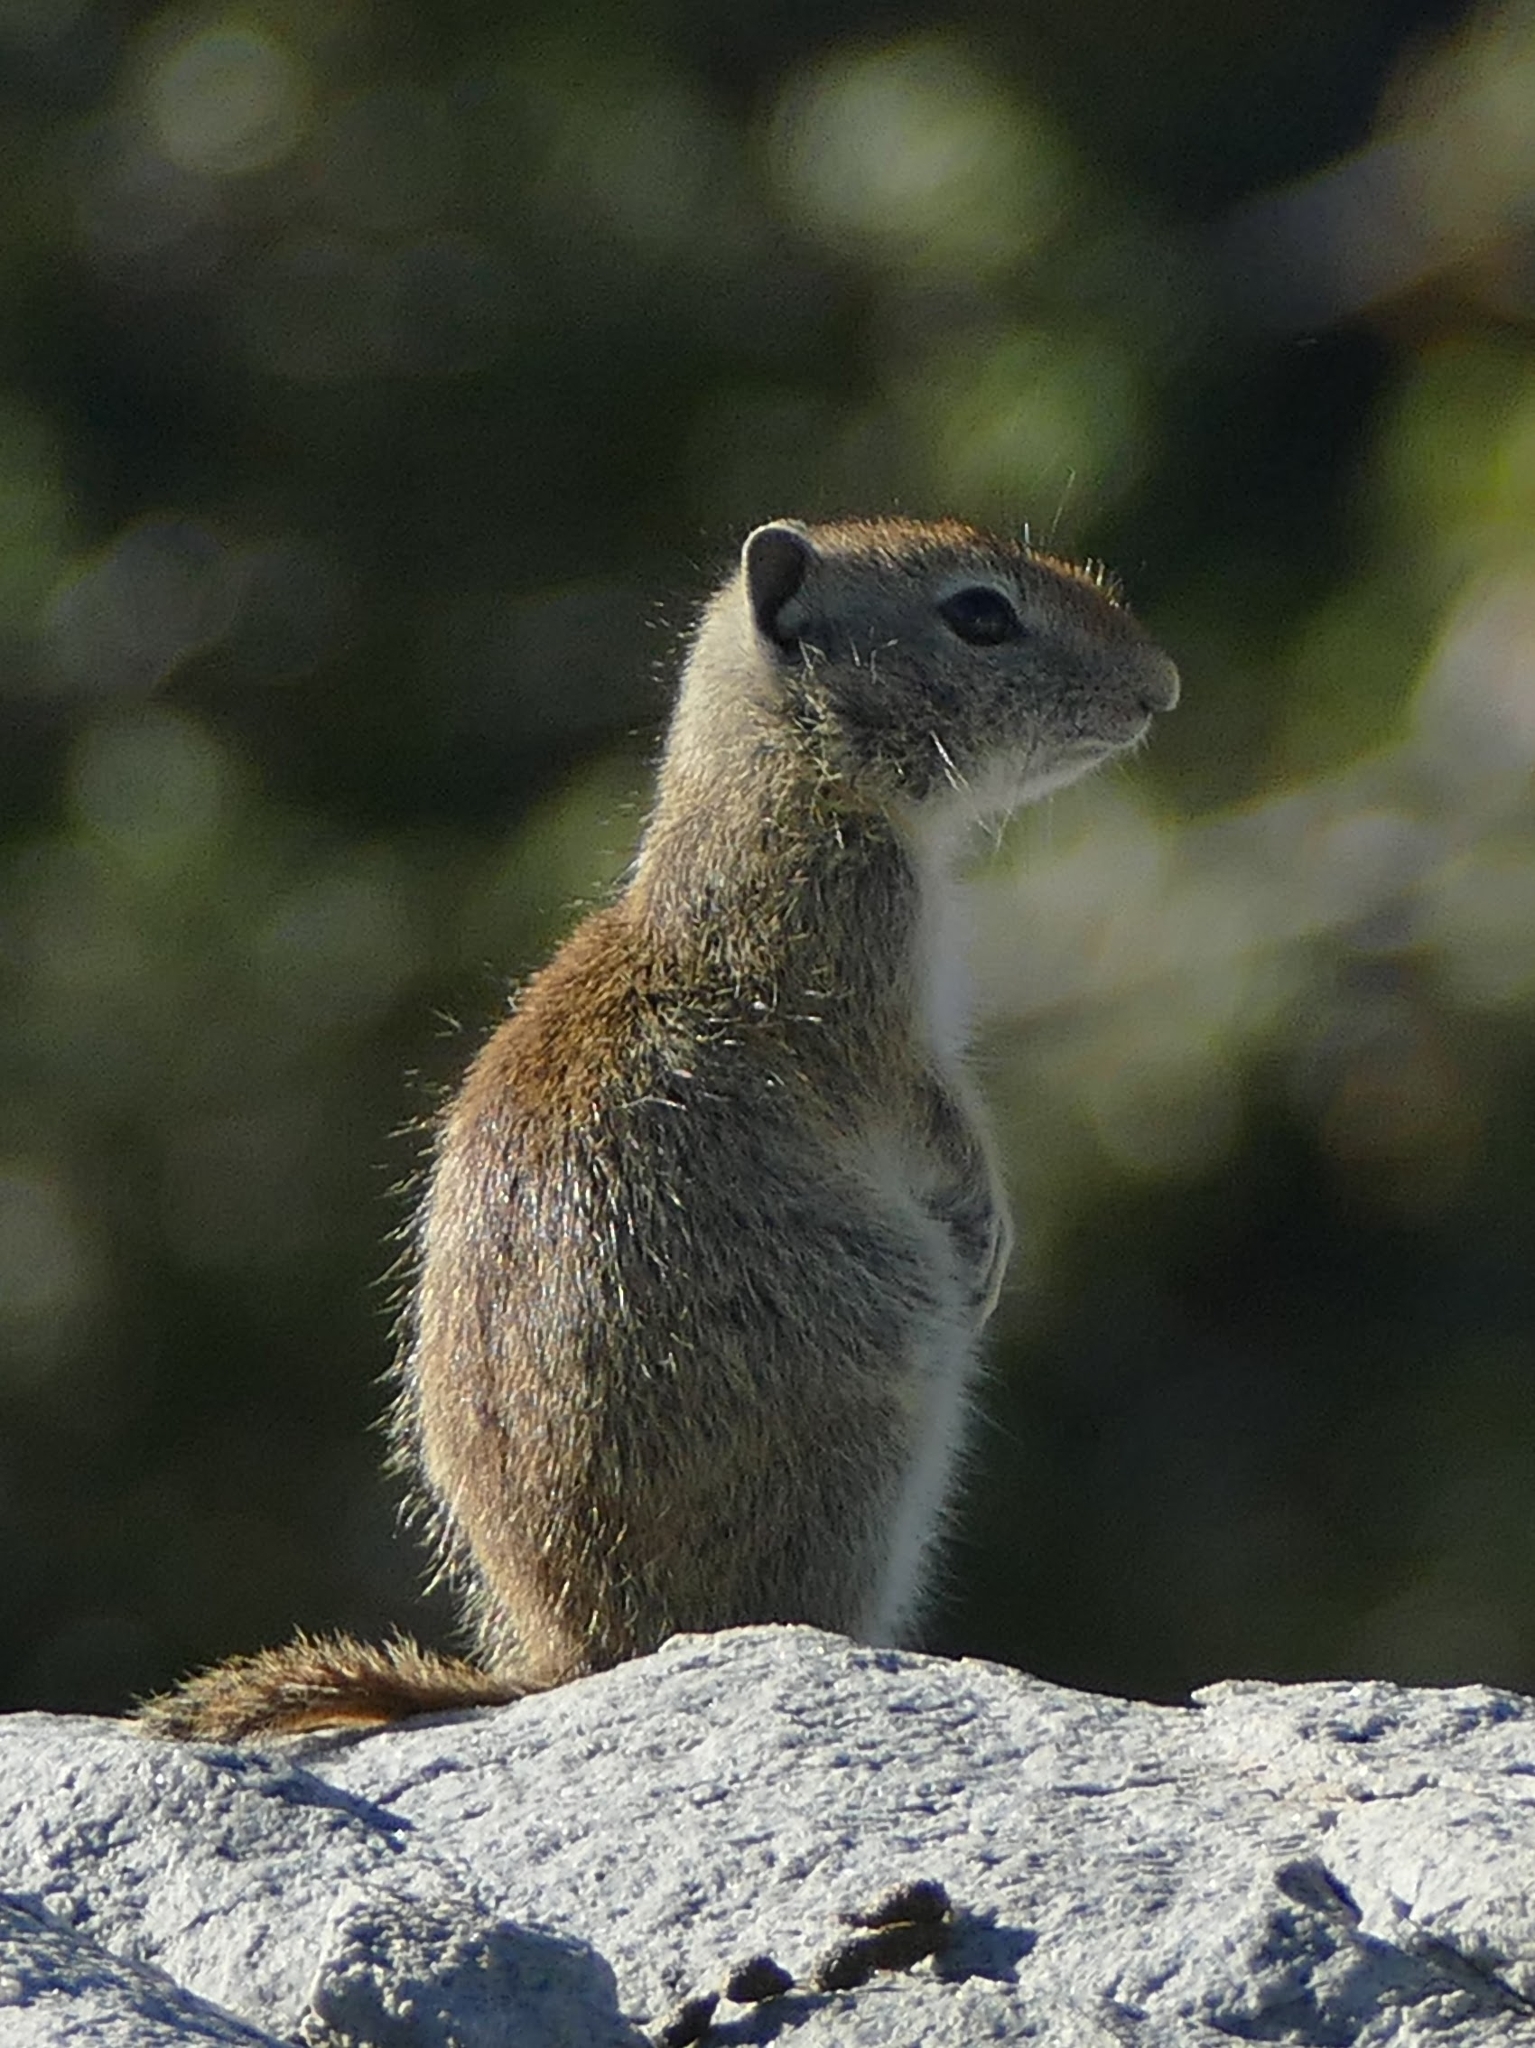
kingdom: Animalia
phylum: Chordata
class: Mammalia
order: Rodentia
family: Sciuridae
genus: Urocitellus
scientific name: Urocitellus beldingi
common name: Belding's ground squirrel
